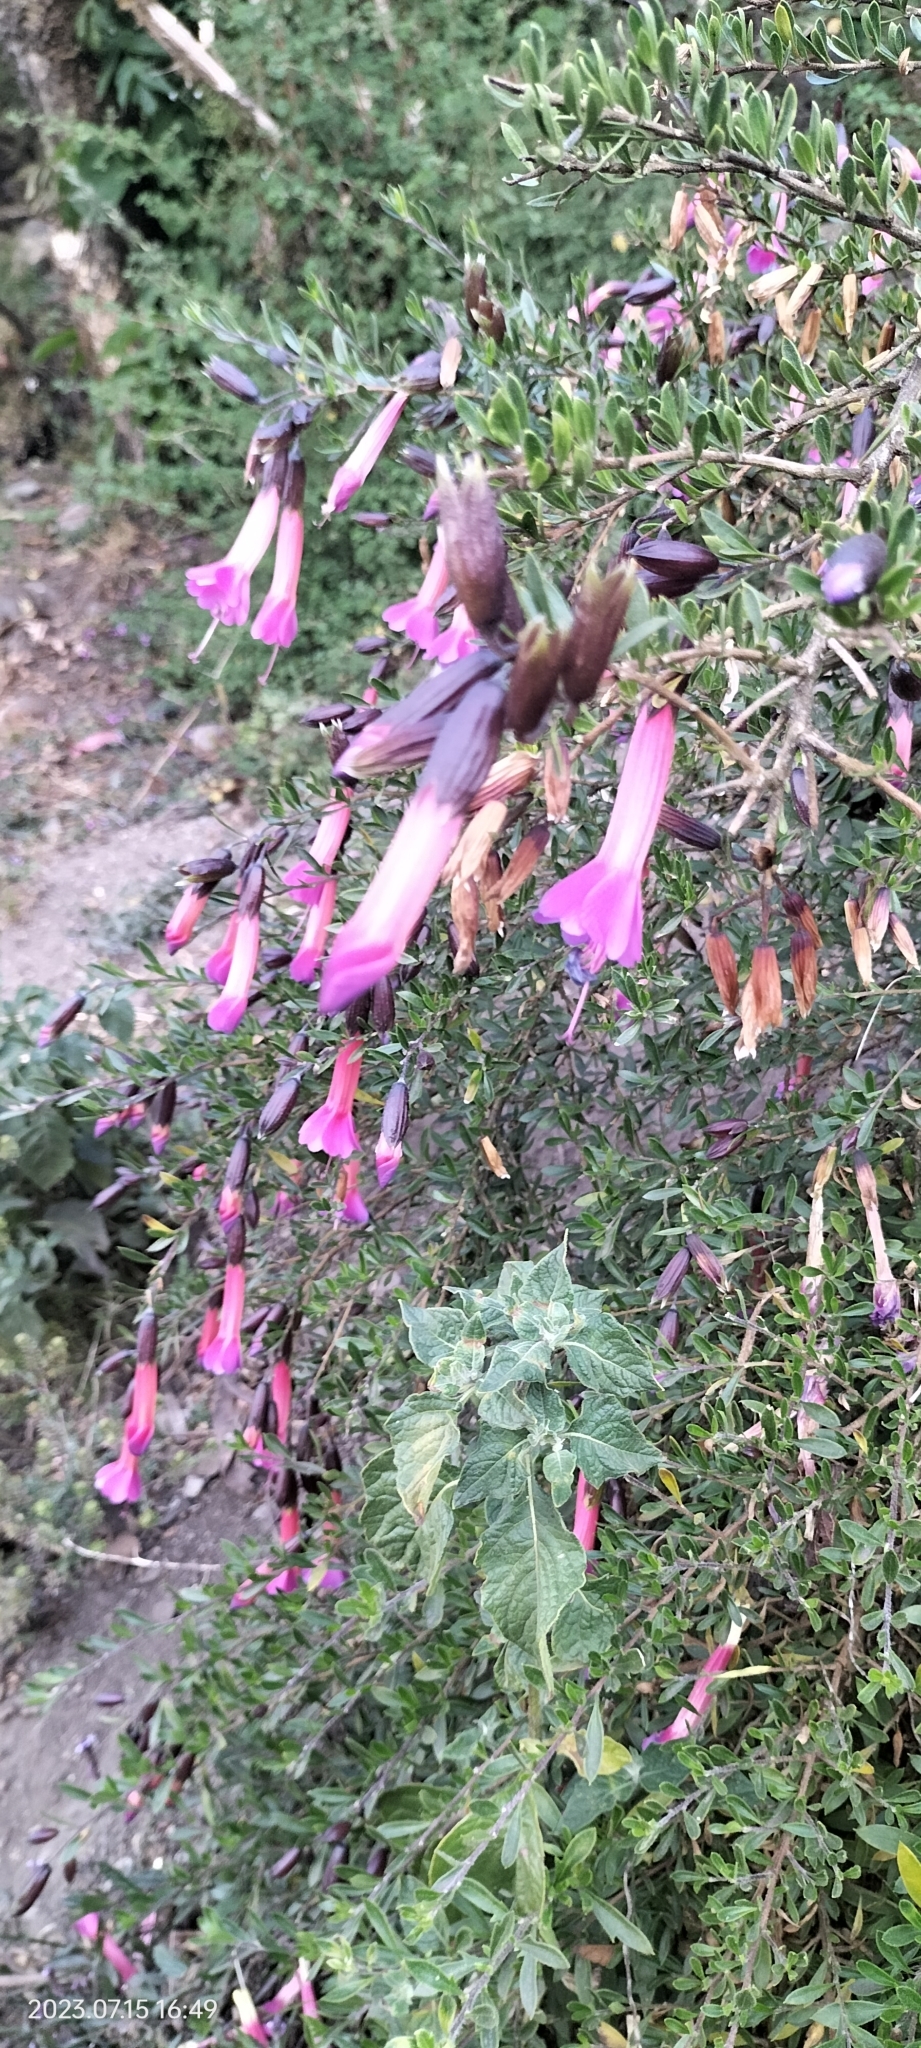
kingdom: Plantae
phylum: Tracheophyta
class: Magnoliopsida
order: Ericales
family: Polemoniaceae
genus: Cantua
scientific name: Cantua buxifolia
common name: Sacred-flower-of-the-incas
